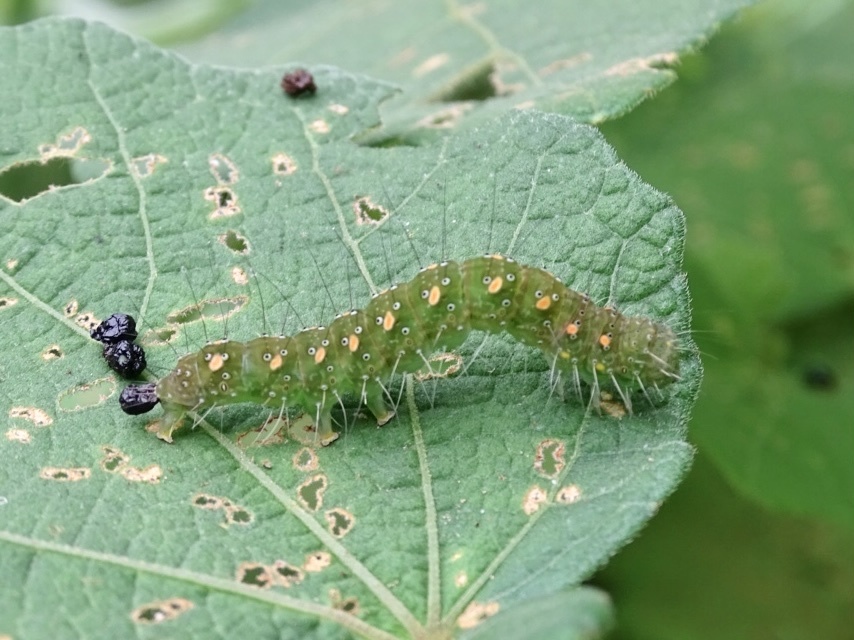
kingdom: Animalia
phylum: Arthropoda
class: Insecta
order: Lepidoptera
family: Nolidae
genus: Xanthodes
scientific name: Xanthodes transversa
